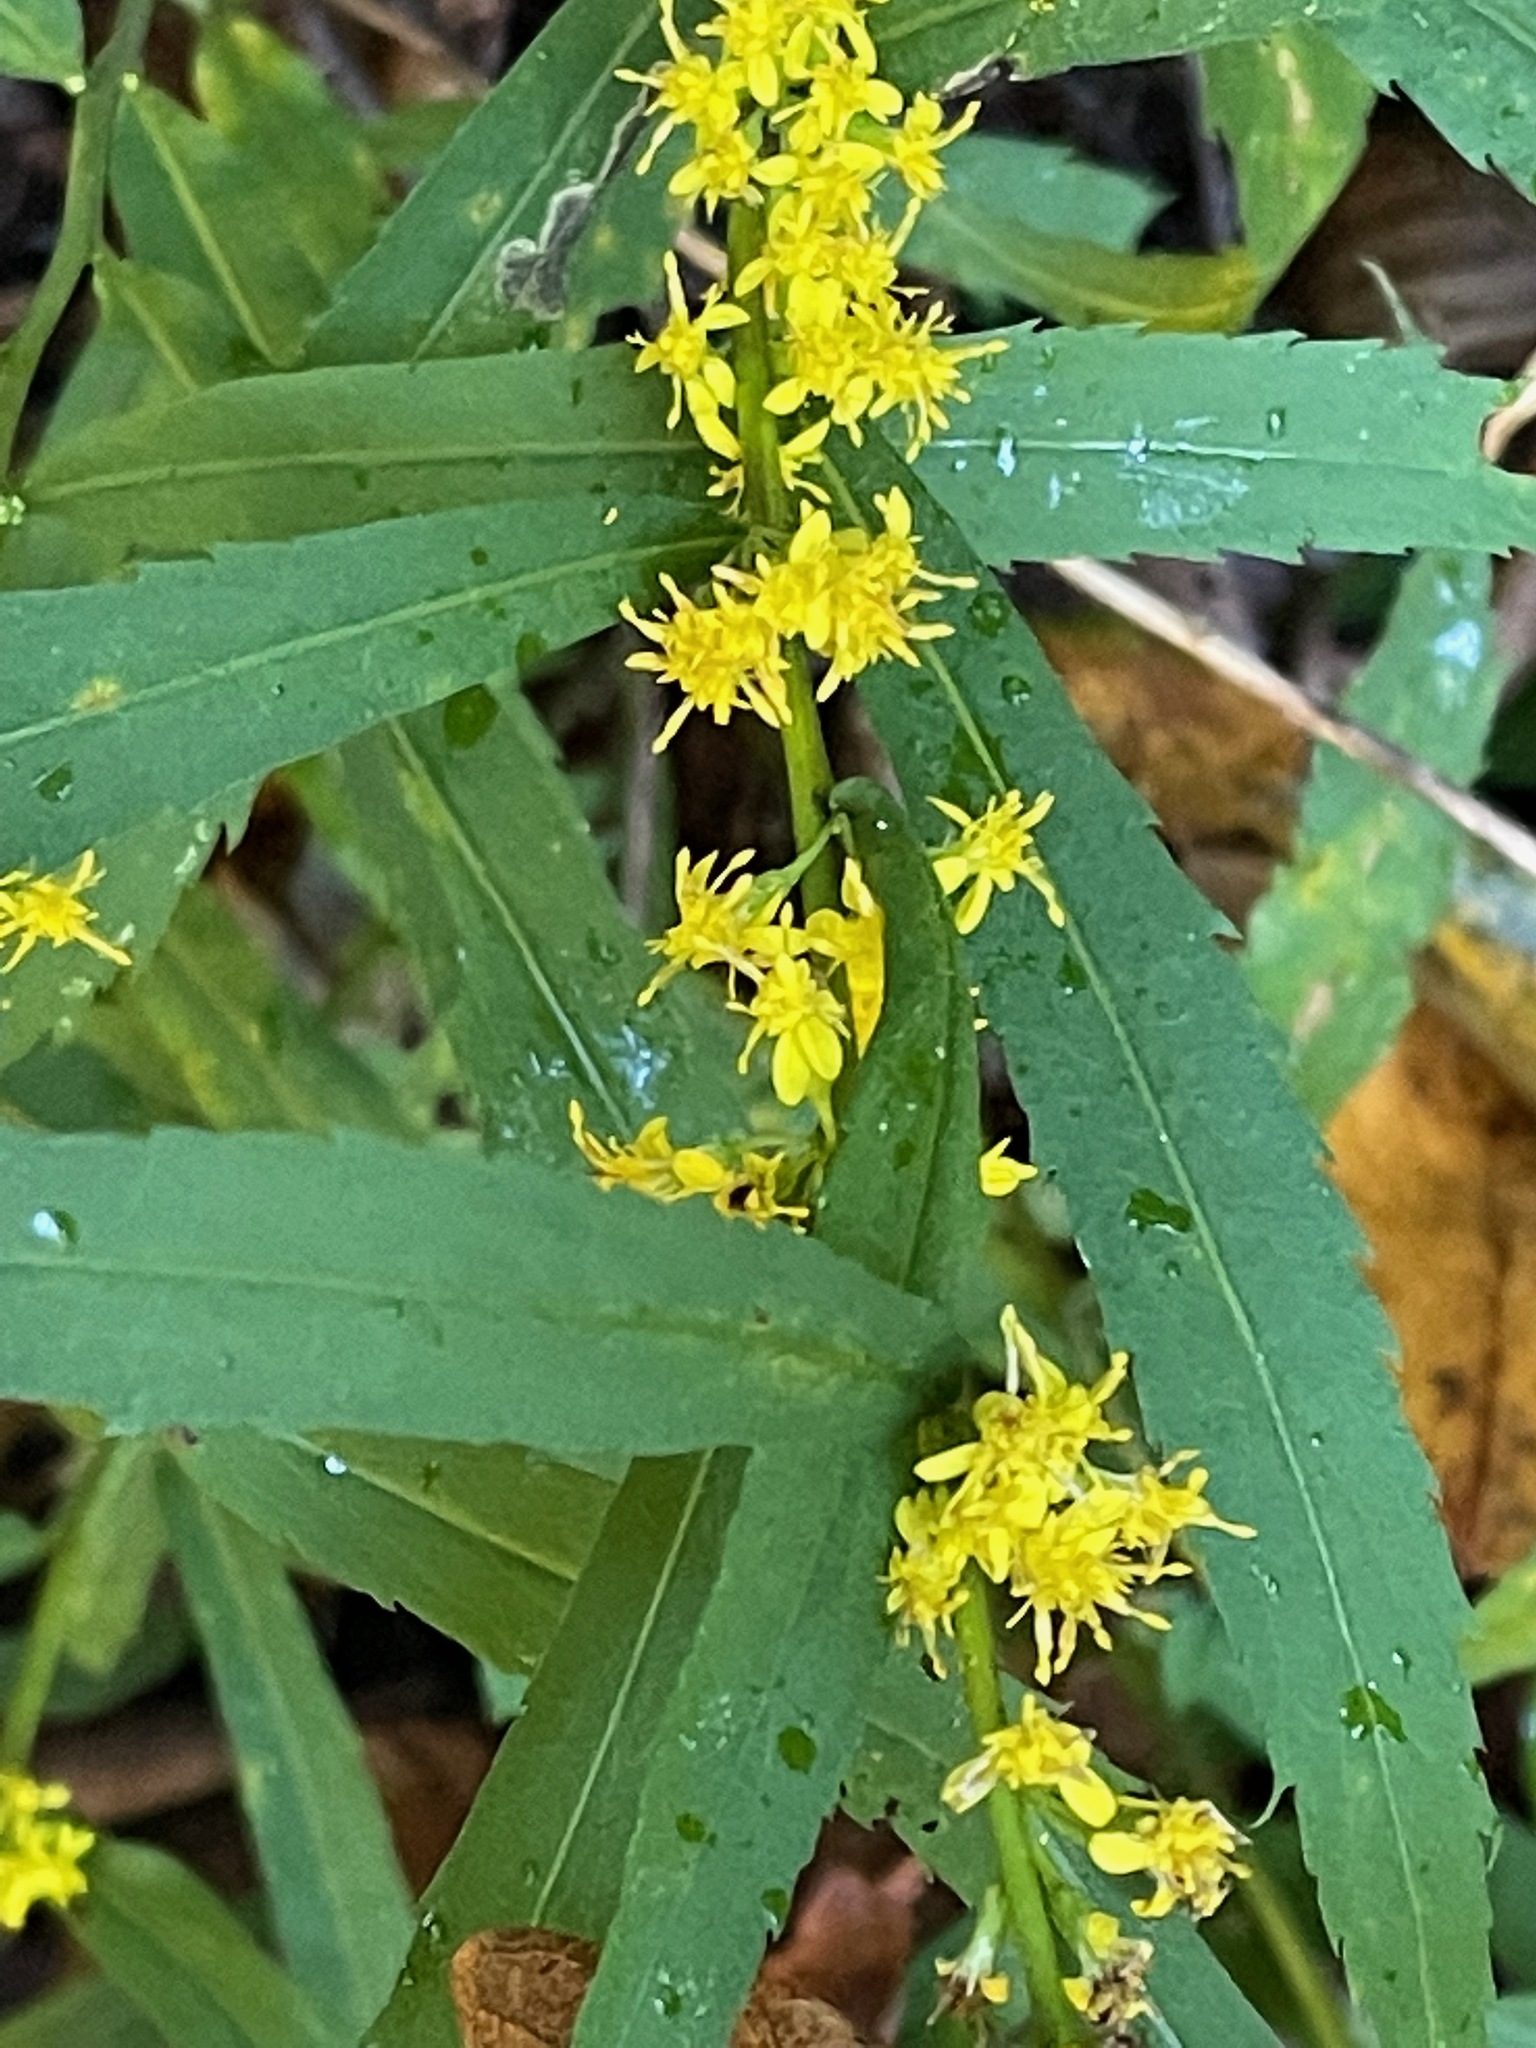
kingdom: Plantae
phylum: Tracheophyta
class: Magnoliopsida
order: Asterales
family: Asteraceae
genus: Solidago
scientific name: Solidago caesia
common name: Woodland goldenrod
